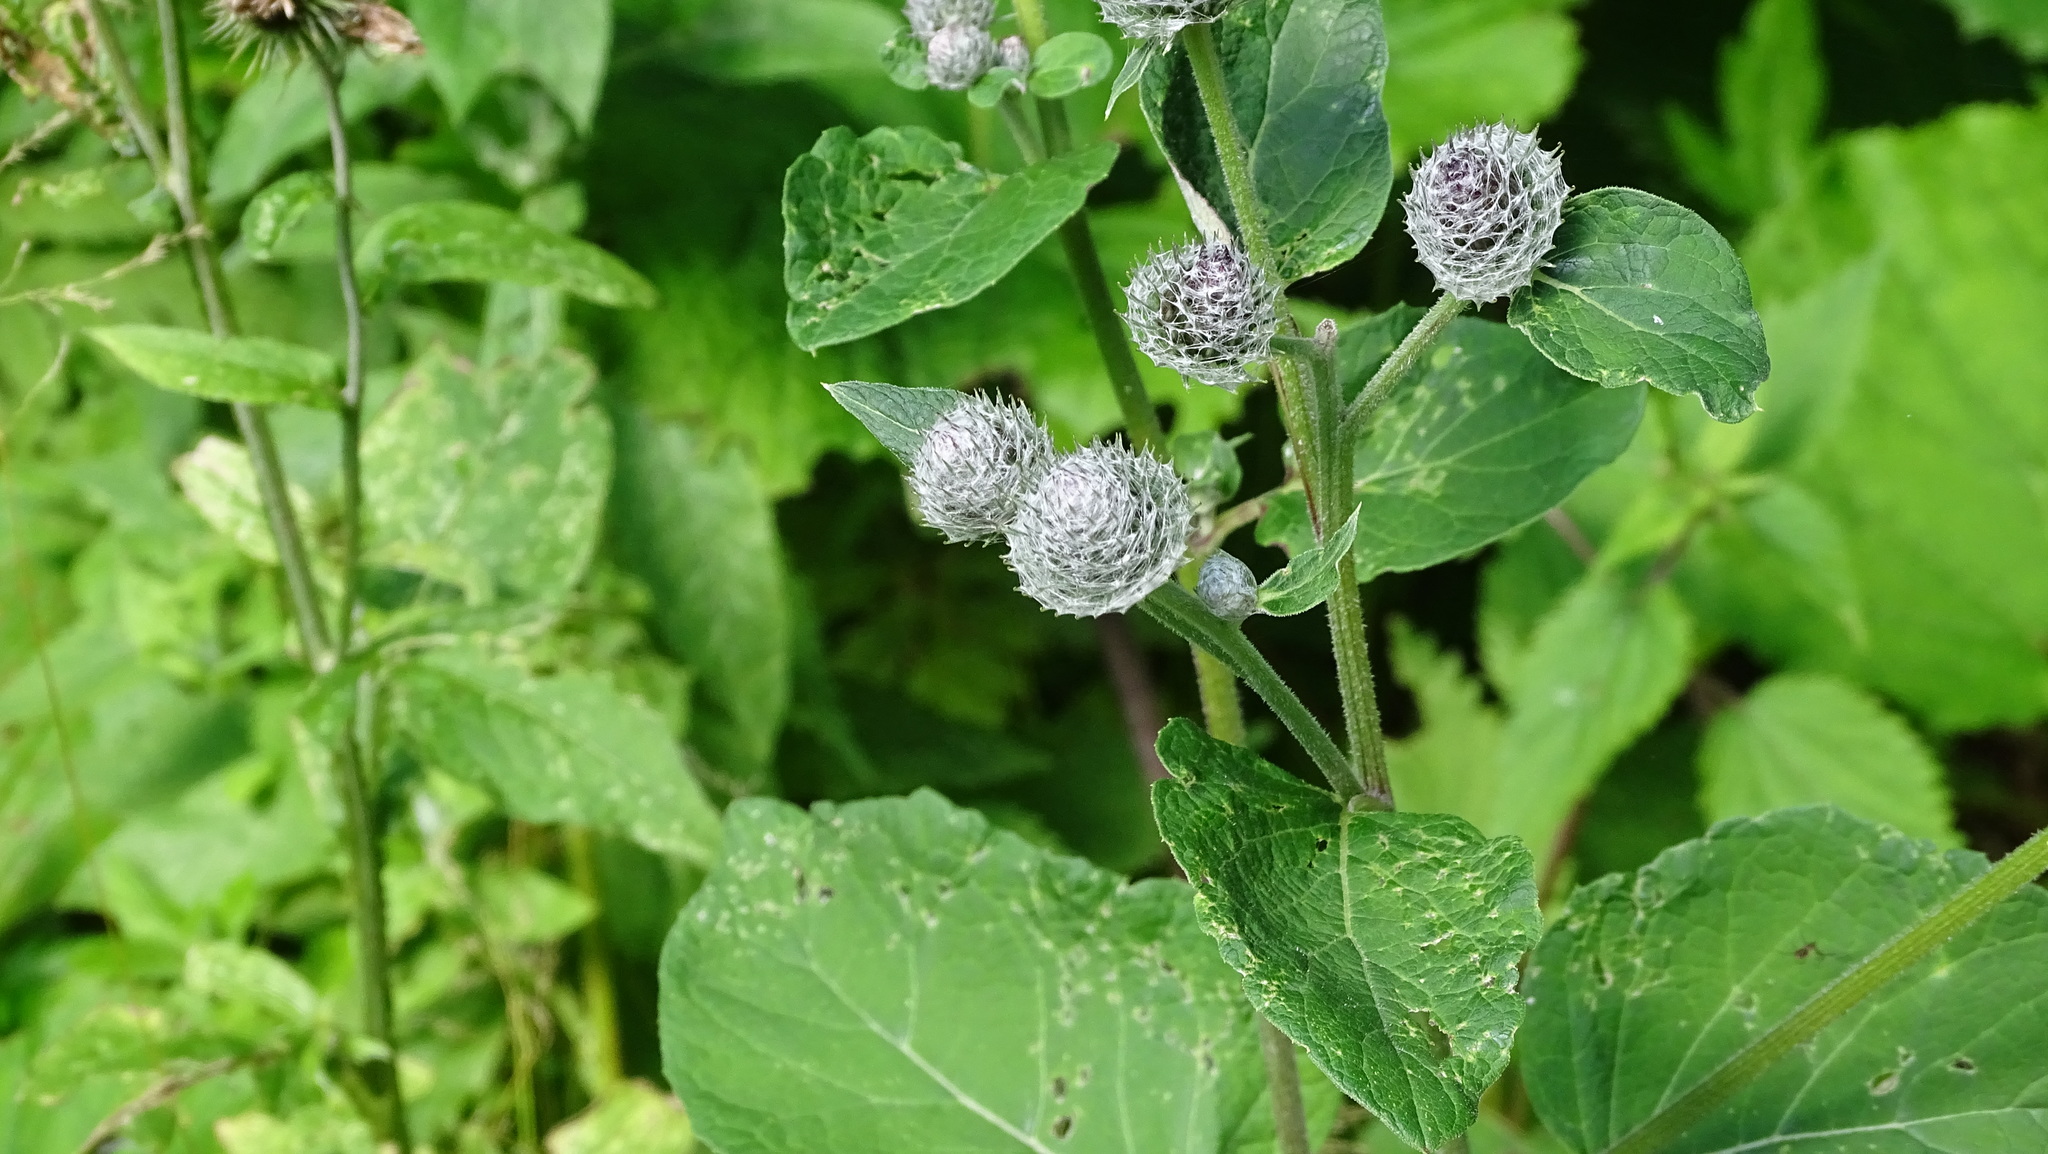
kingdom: Plantae
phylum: Tracheophyta
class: Magnoliopsida
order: Asterales
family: Asteraceae
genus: Arctium
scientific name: Arctium tomentosum
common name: Woolly burdock
